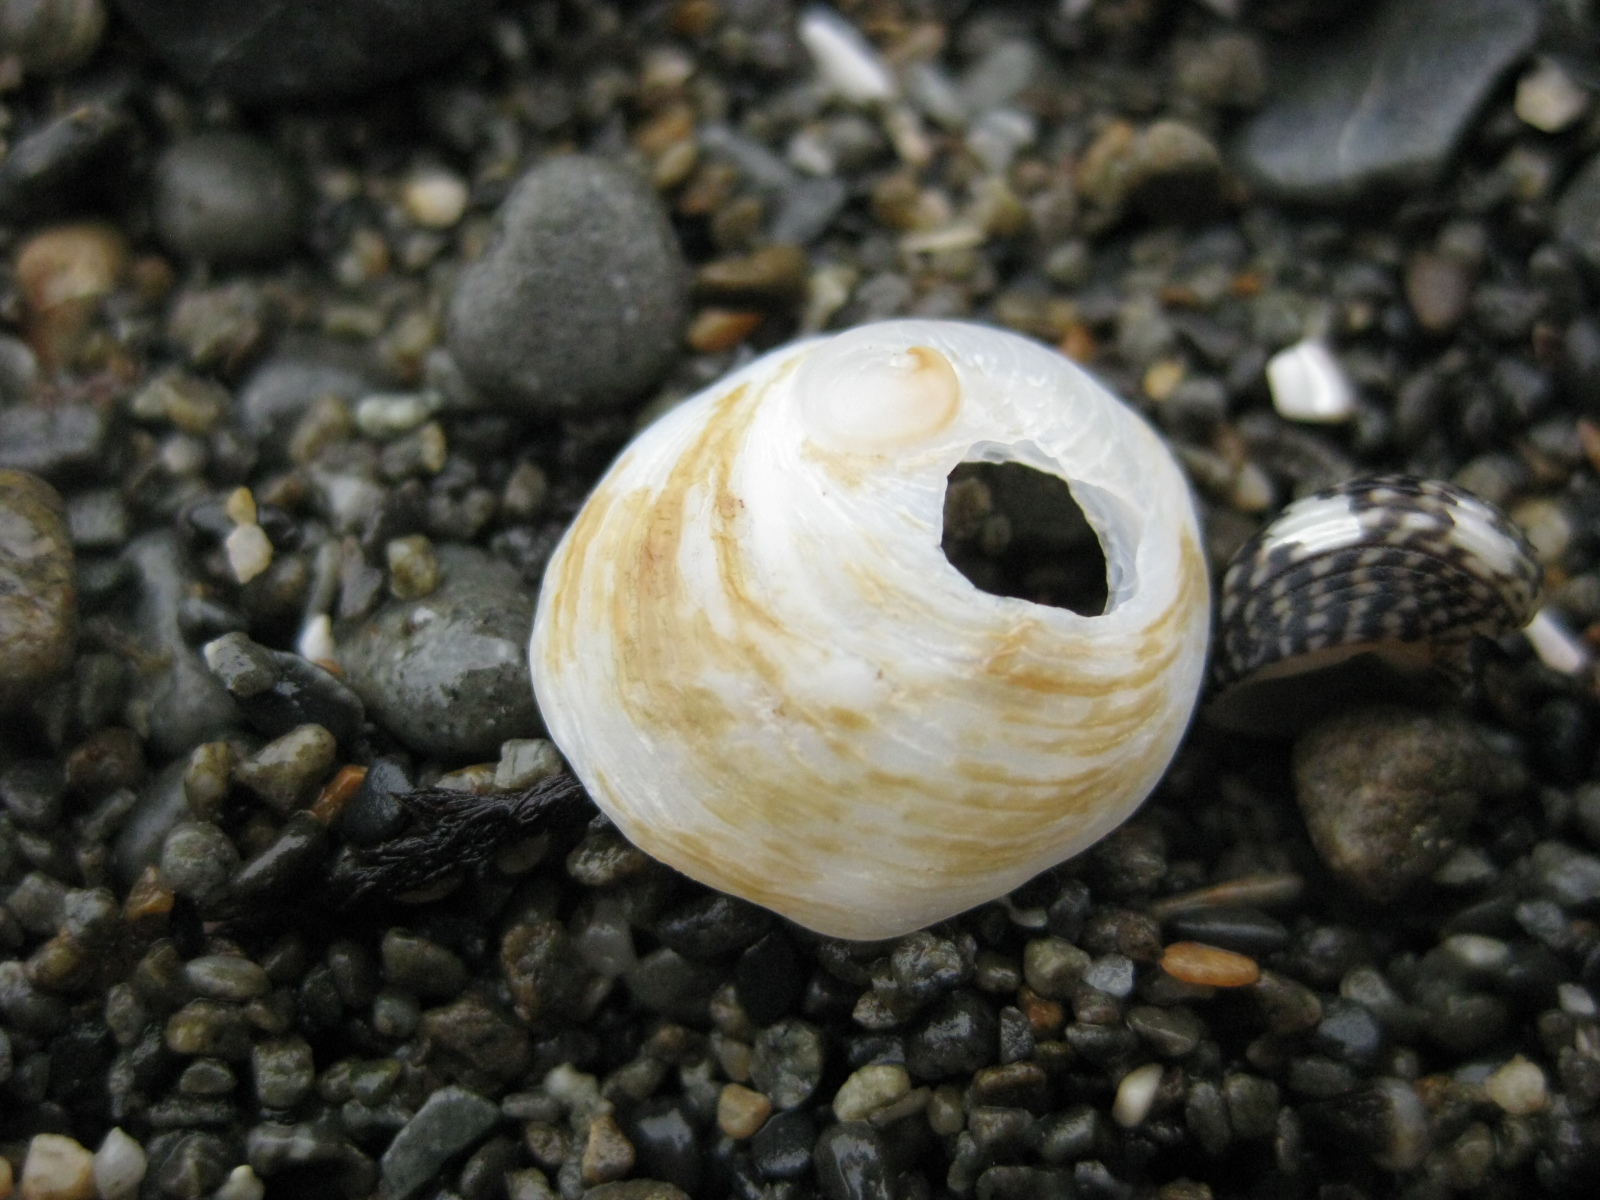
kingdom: Animalia
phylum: Mollusca
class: Gastropoda
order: Littorinimorpha
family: Calyptraeidae
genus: Sigapatella
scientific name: Sigapatella novaezelandiae
